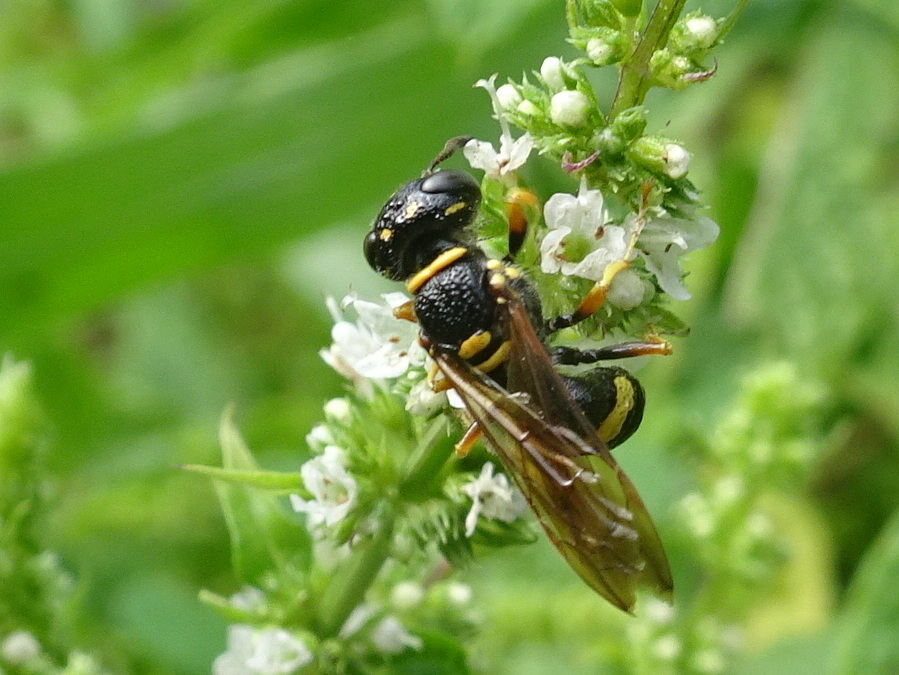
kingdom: Animalia
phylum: Arthropoda
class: Insecta
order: Hymenoptera
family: Crabronidae
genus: Philanthus
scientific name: Philanthus gibbosus
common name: Humped beewolf
